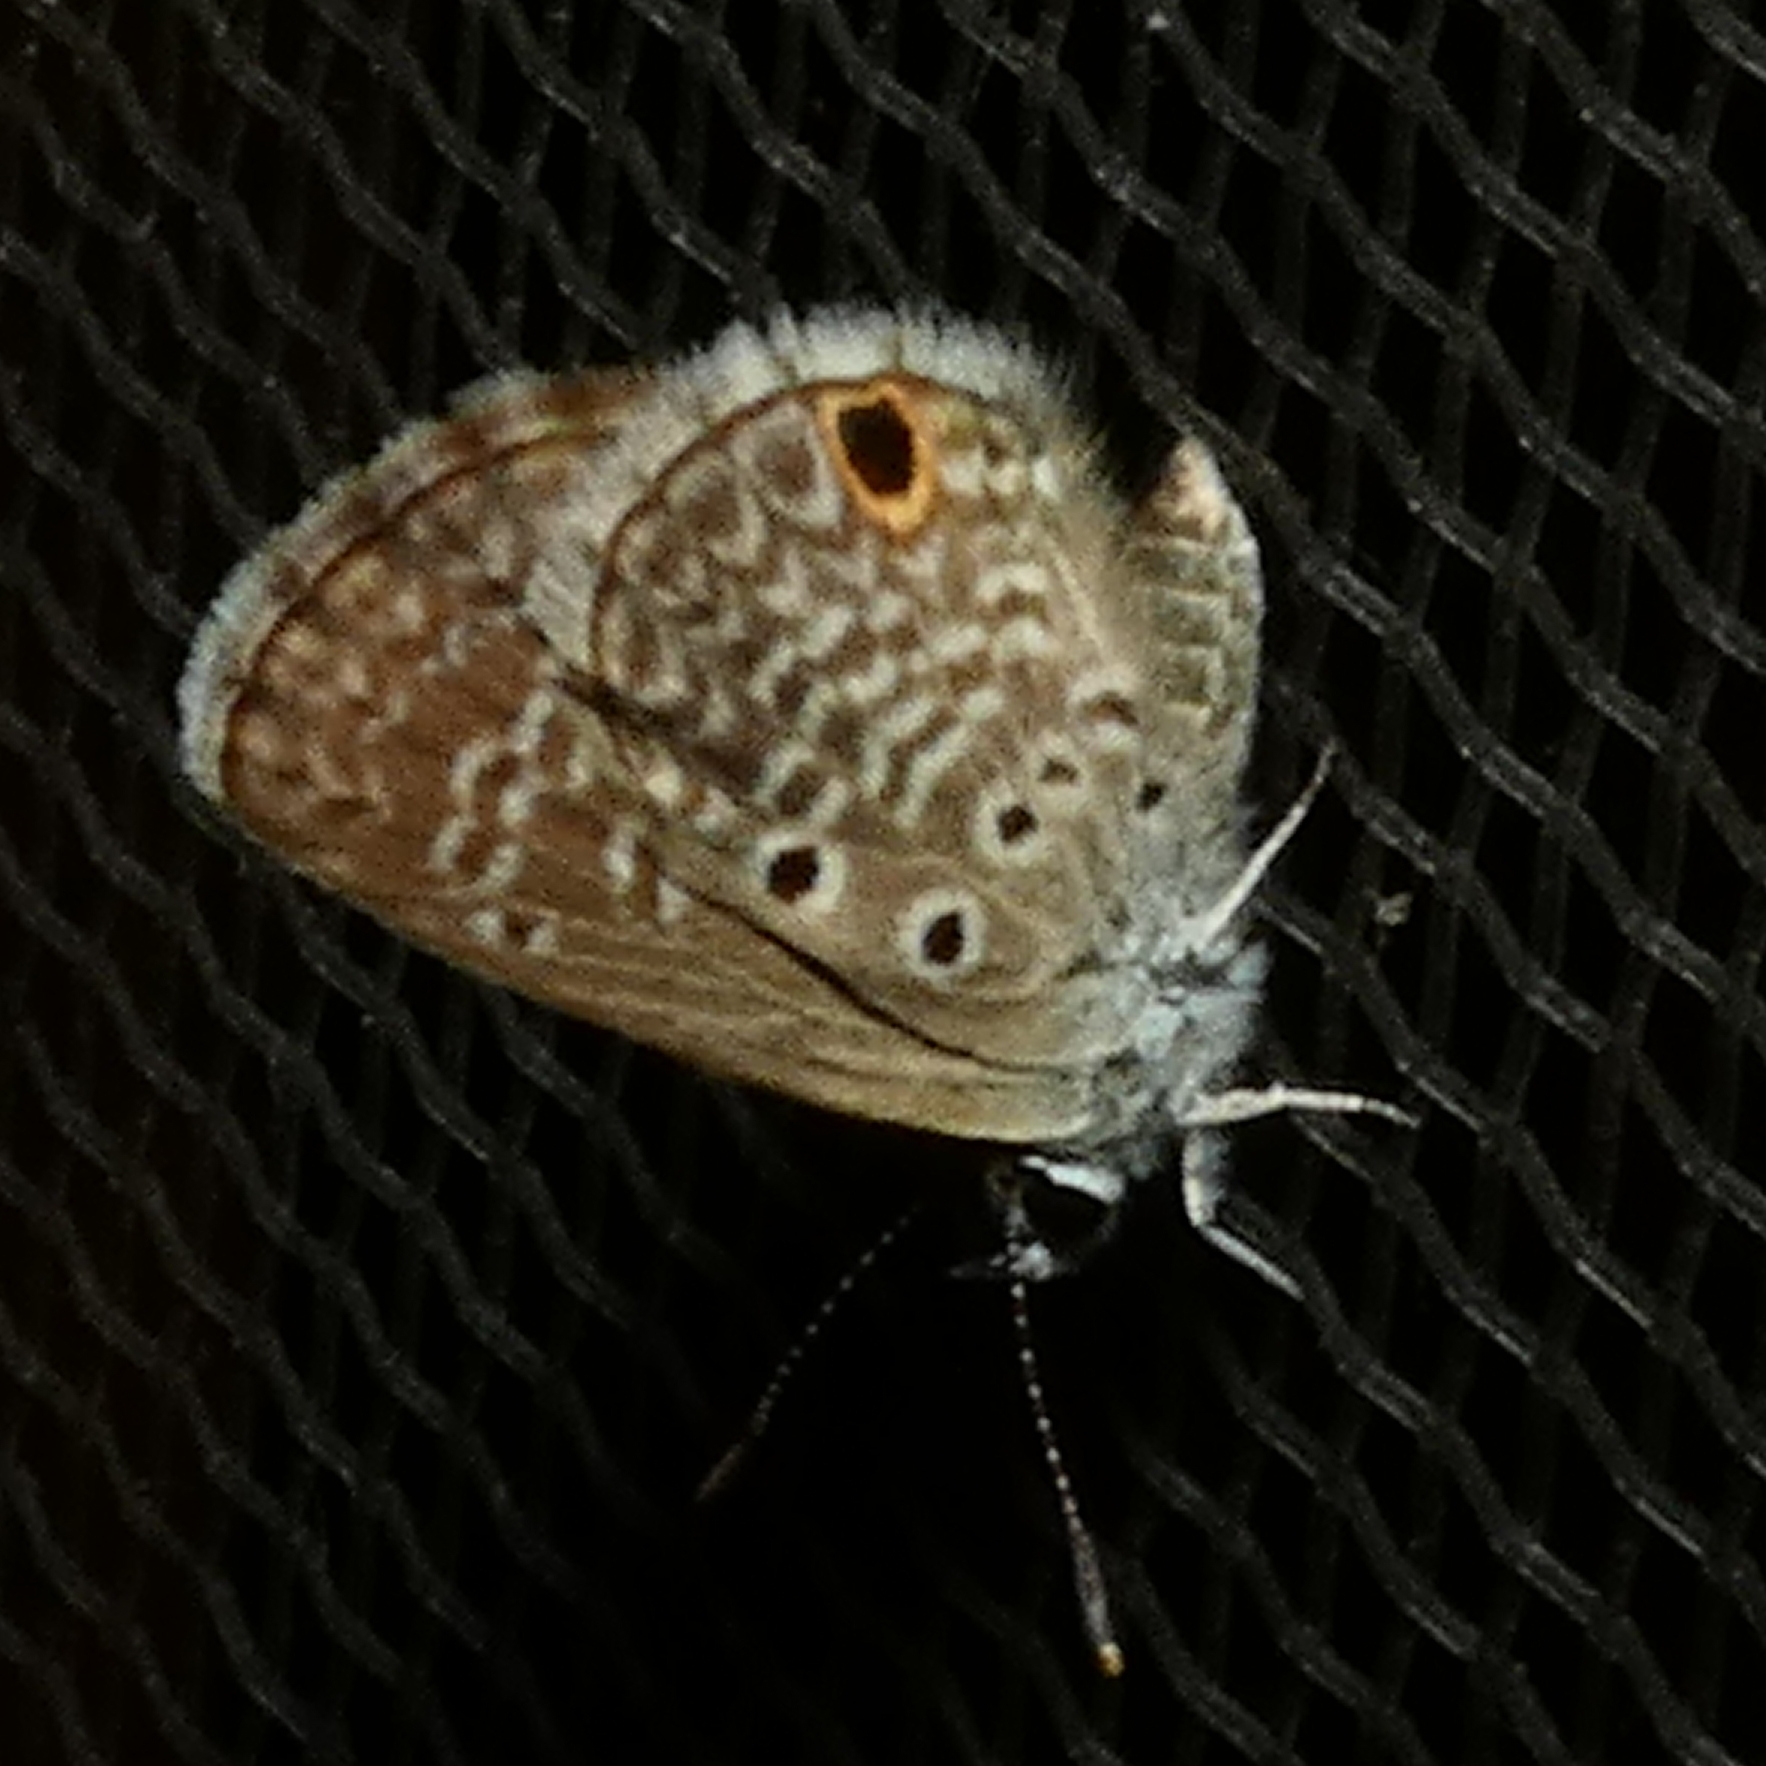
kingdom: Animalia
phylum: Arthropoda
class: Insecta
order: Lepidoptera
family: Lycaenidae
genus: Hemiargus
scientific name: Hemiargus hanno
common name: Common blue
